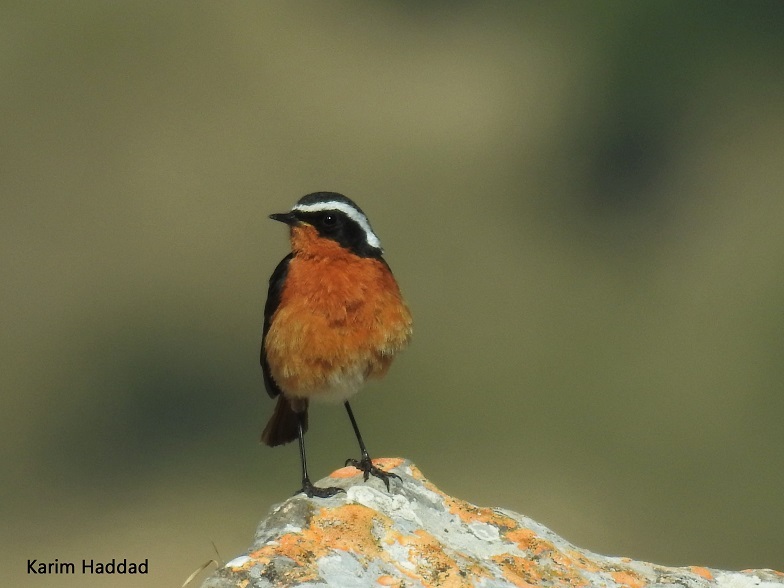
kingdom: Animalia
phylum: Chordata
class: Aves
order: Passeriformes
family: Muscicapidae
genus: Phoenicurus
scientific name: Phoenicurus moussieri
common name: Moussier's redstart
